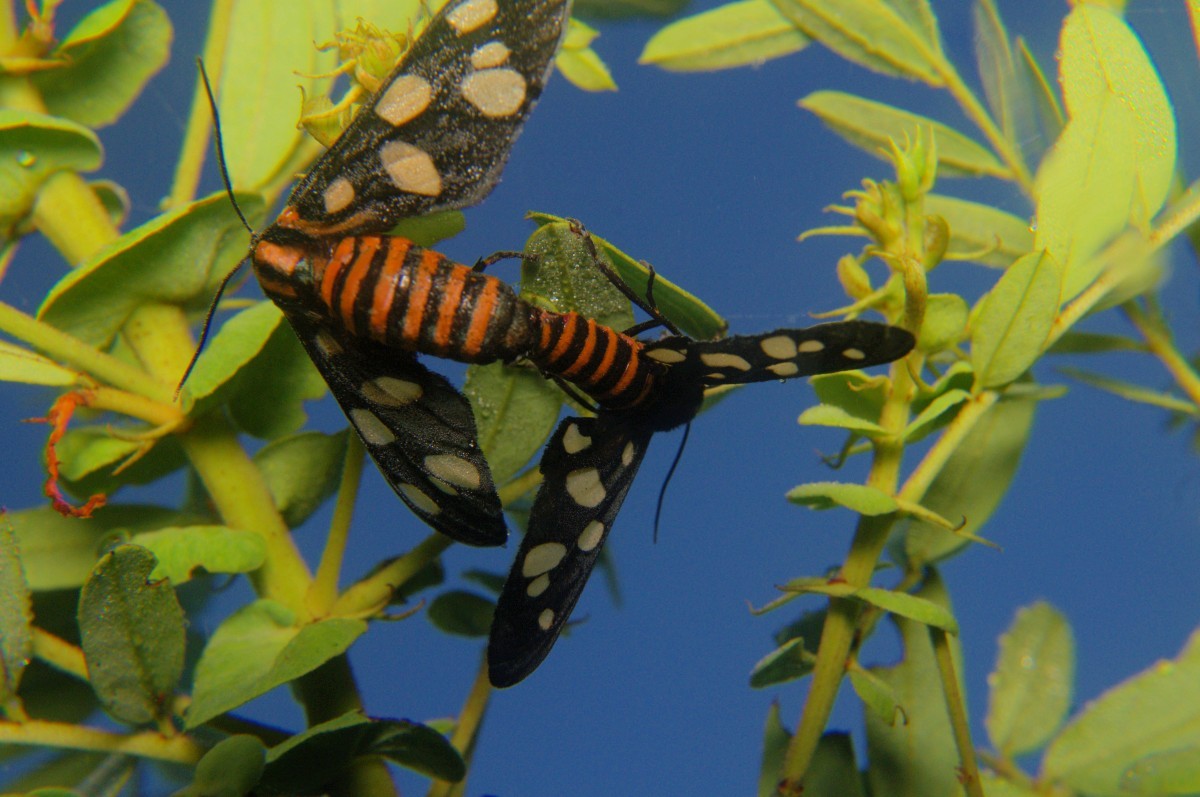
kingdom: Animalia
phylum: Arthropoda
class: Insecta
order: Lepidoptera
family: Erebidae
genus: Amata
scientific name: Amata passalis
